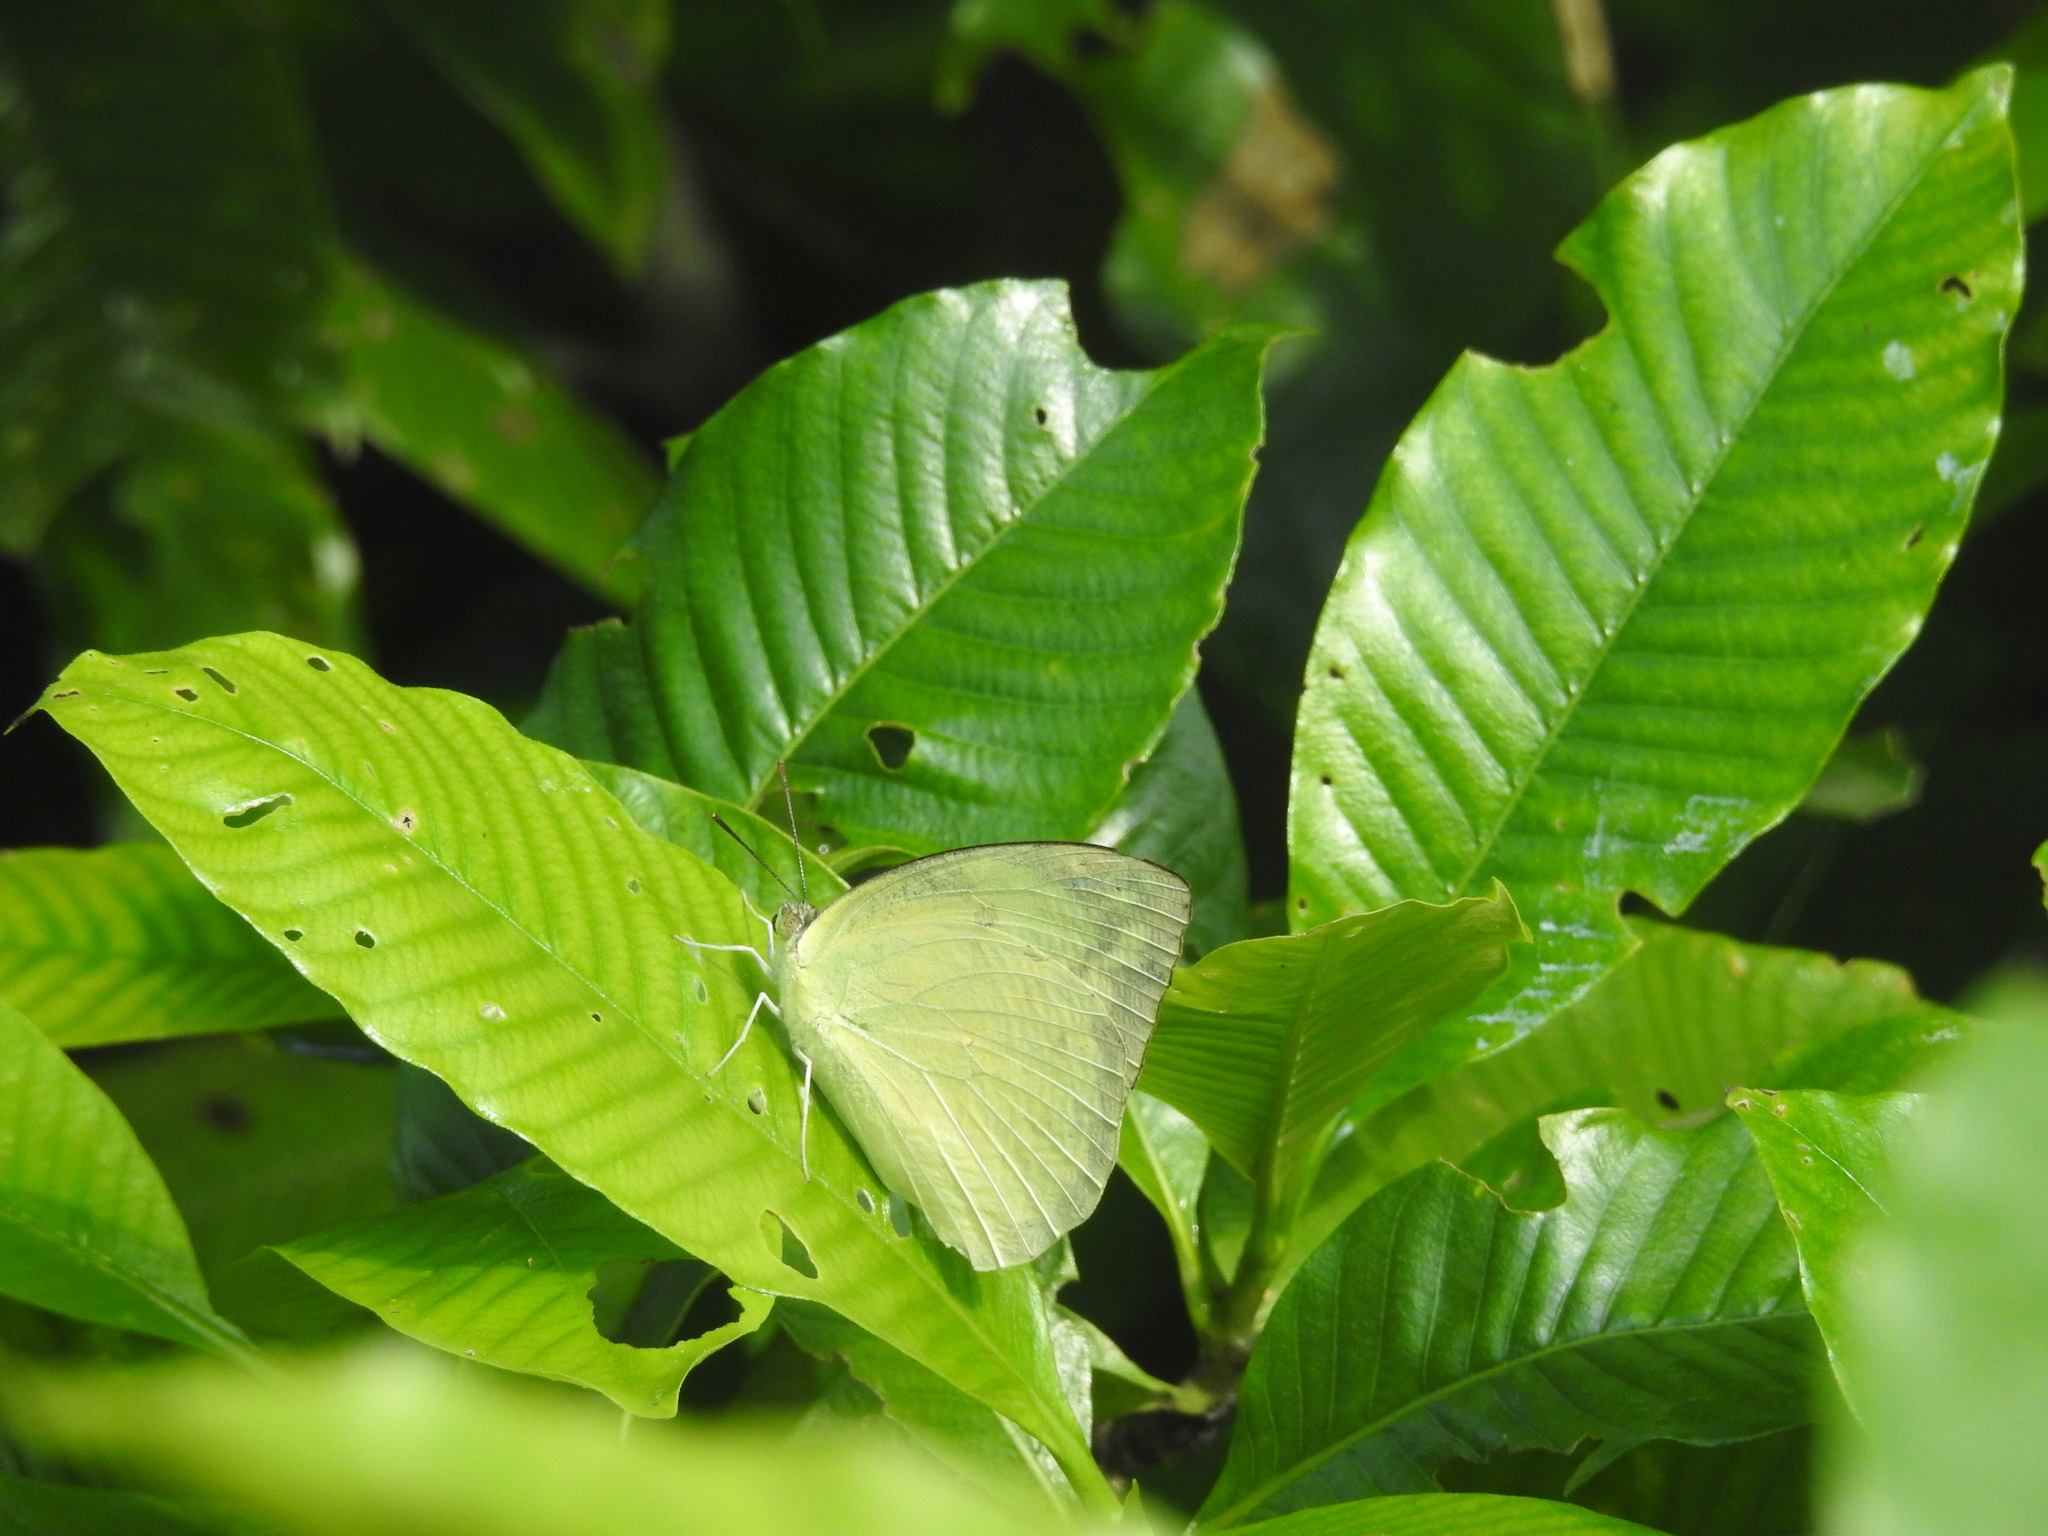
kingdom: Animalia
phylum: Arthropoda
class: Insecta
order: Lepidoptera
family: Pieridae
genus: Catopsilia
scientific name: Catopsilia pomona
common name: Common emigrant
